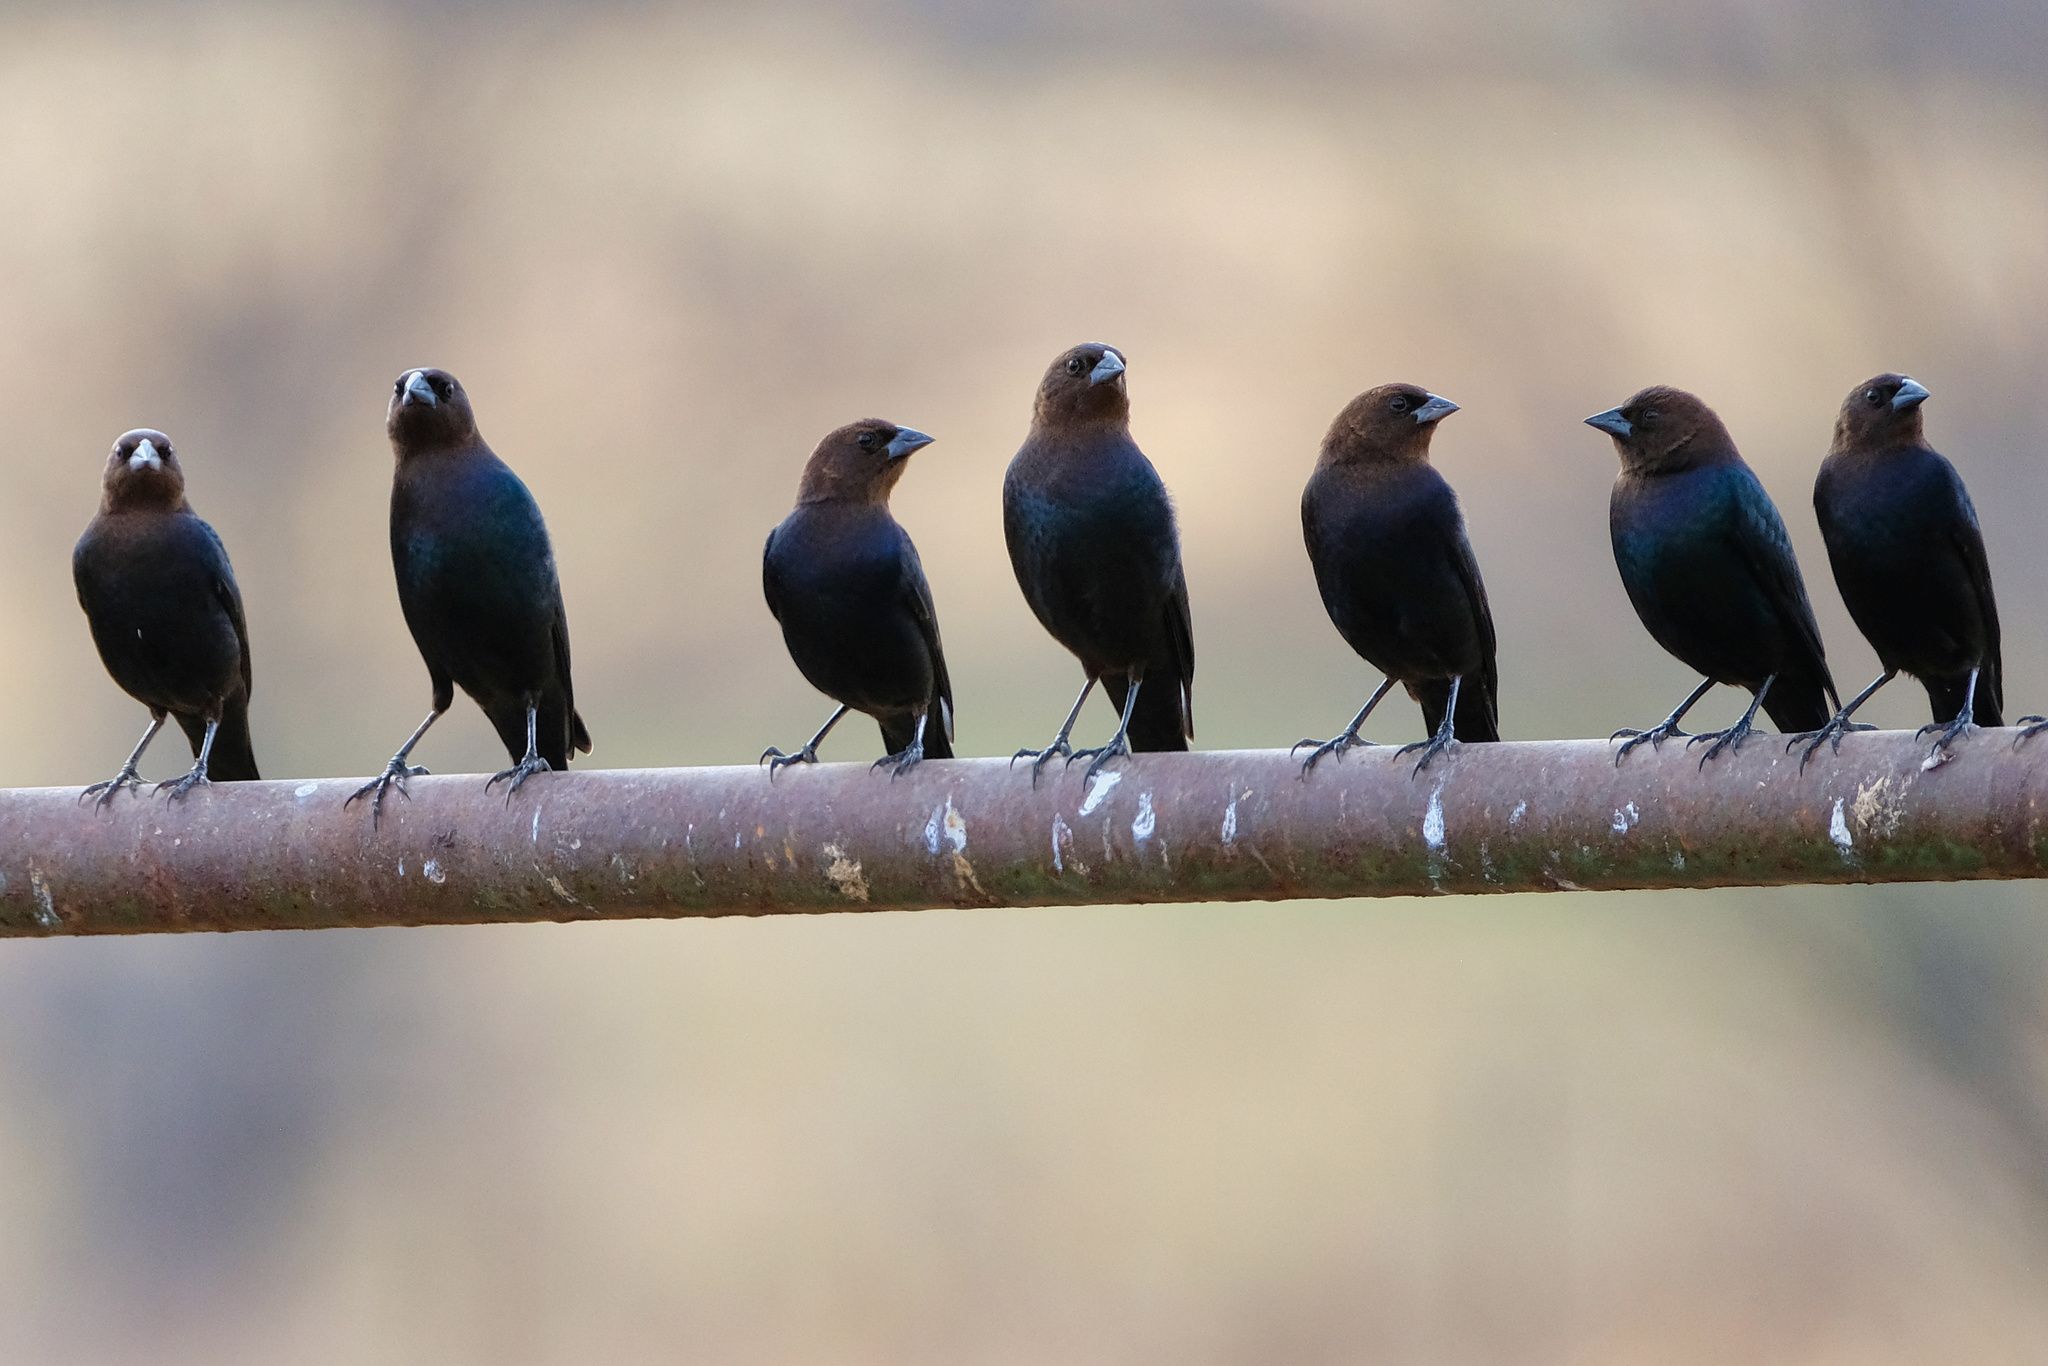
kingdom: Animalia
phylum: Chordata
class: Aves
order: Passeriformes
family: Icteridae
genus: Molothrus
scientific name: Molothrus ater
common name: Brown-headed cowbird
